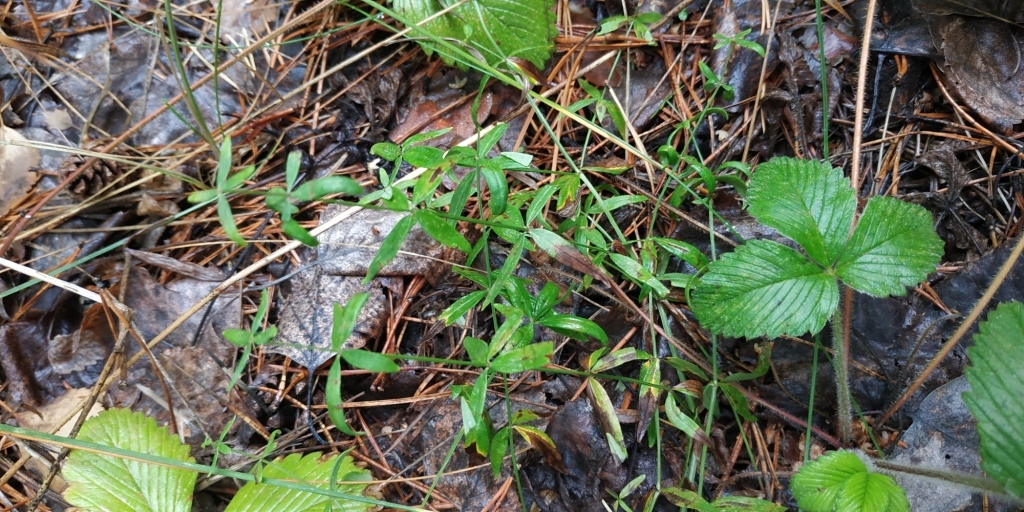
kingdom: Plantae
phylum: Tracheophyta
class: Magnoliopsida
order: Gentianales
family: Rubiaceae
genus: Galium
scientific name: Galium boreale
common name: Northern bedstraw
